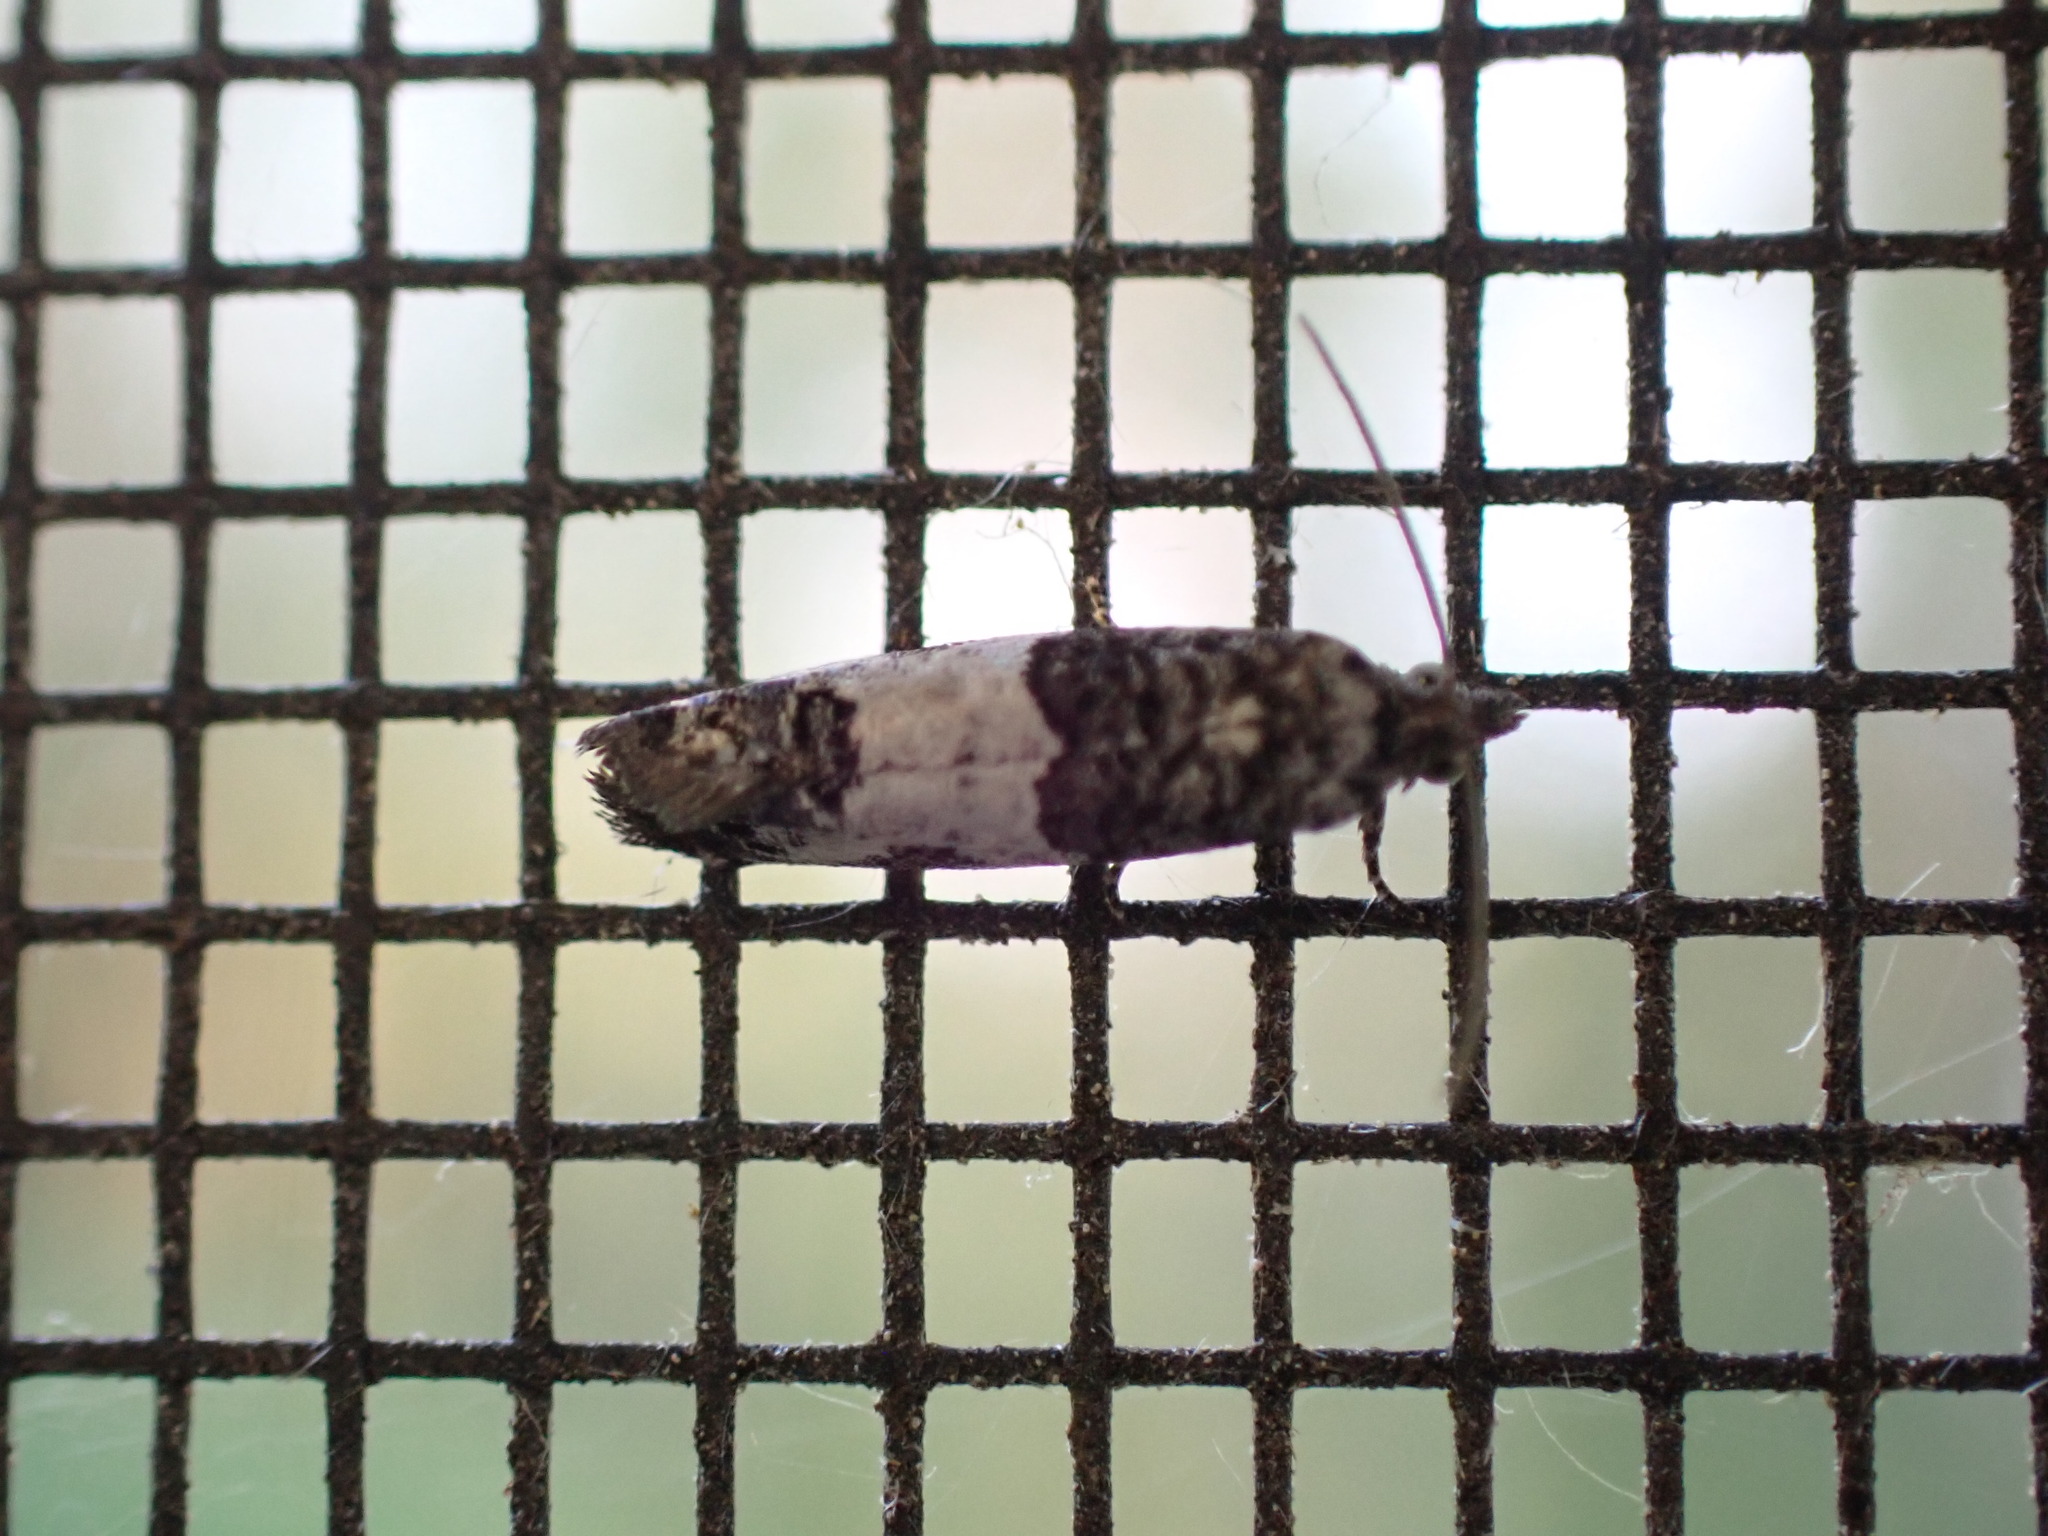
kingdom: Animalia
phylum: Arthropoda
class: Insecta
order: Lepidoptera
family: Tortricidae
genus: Spilonota
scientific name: Spilonota ocellana
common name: Bud moth
